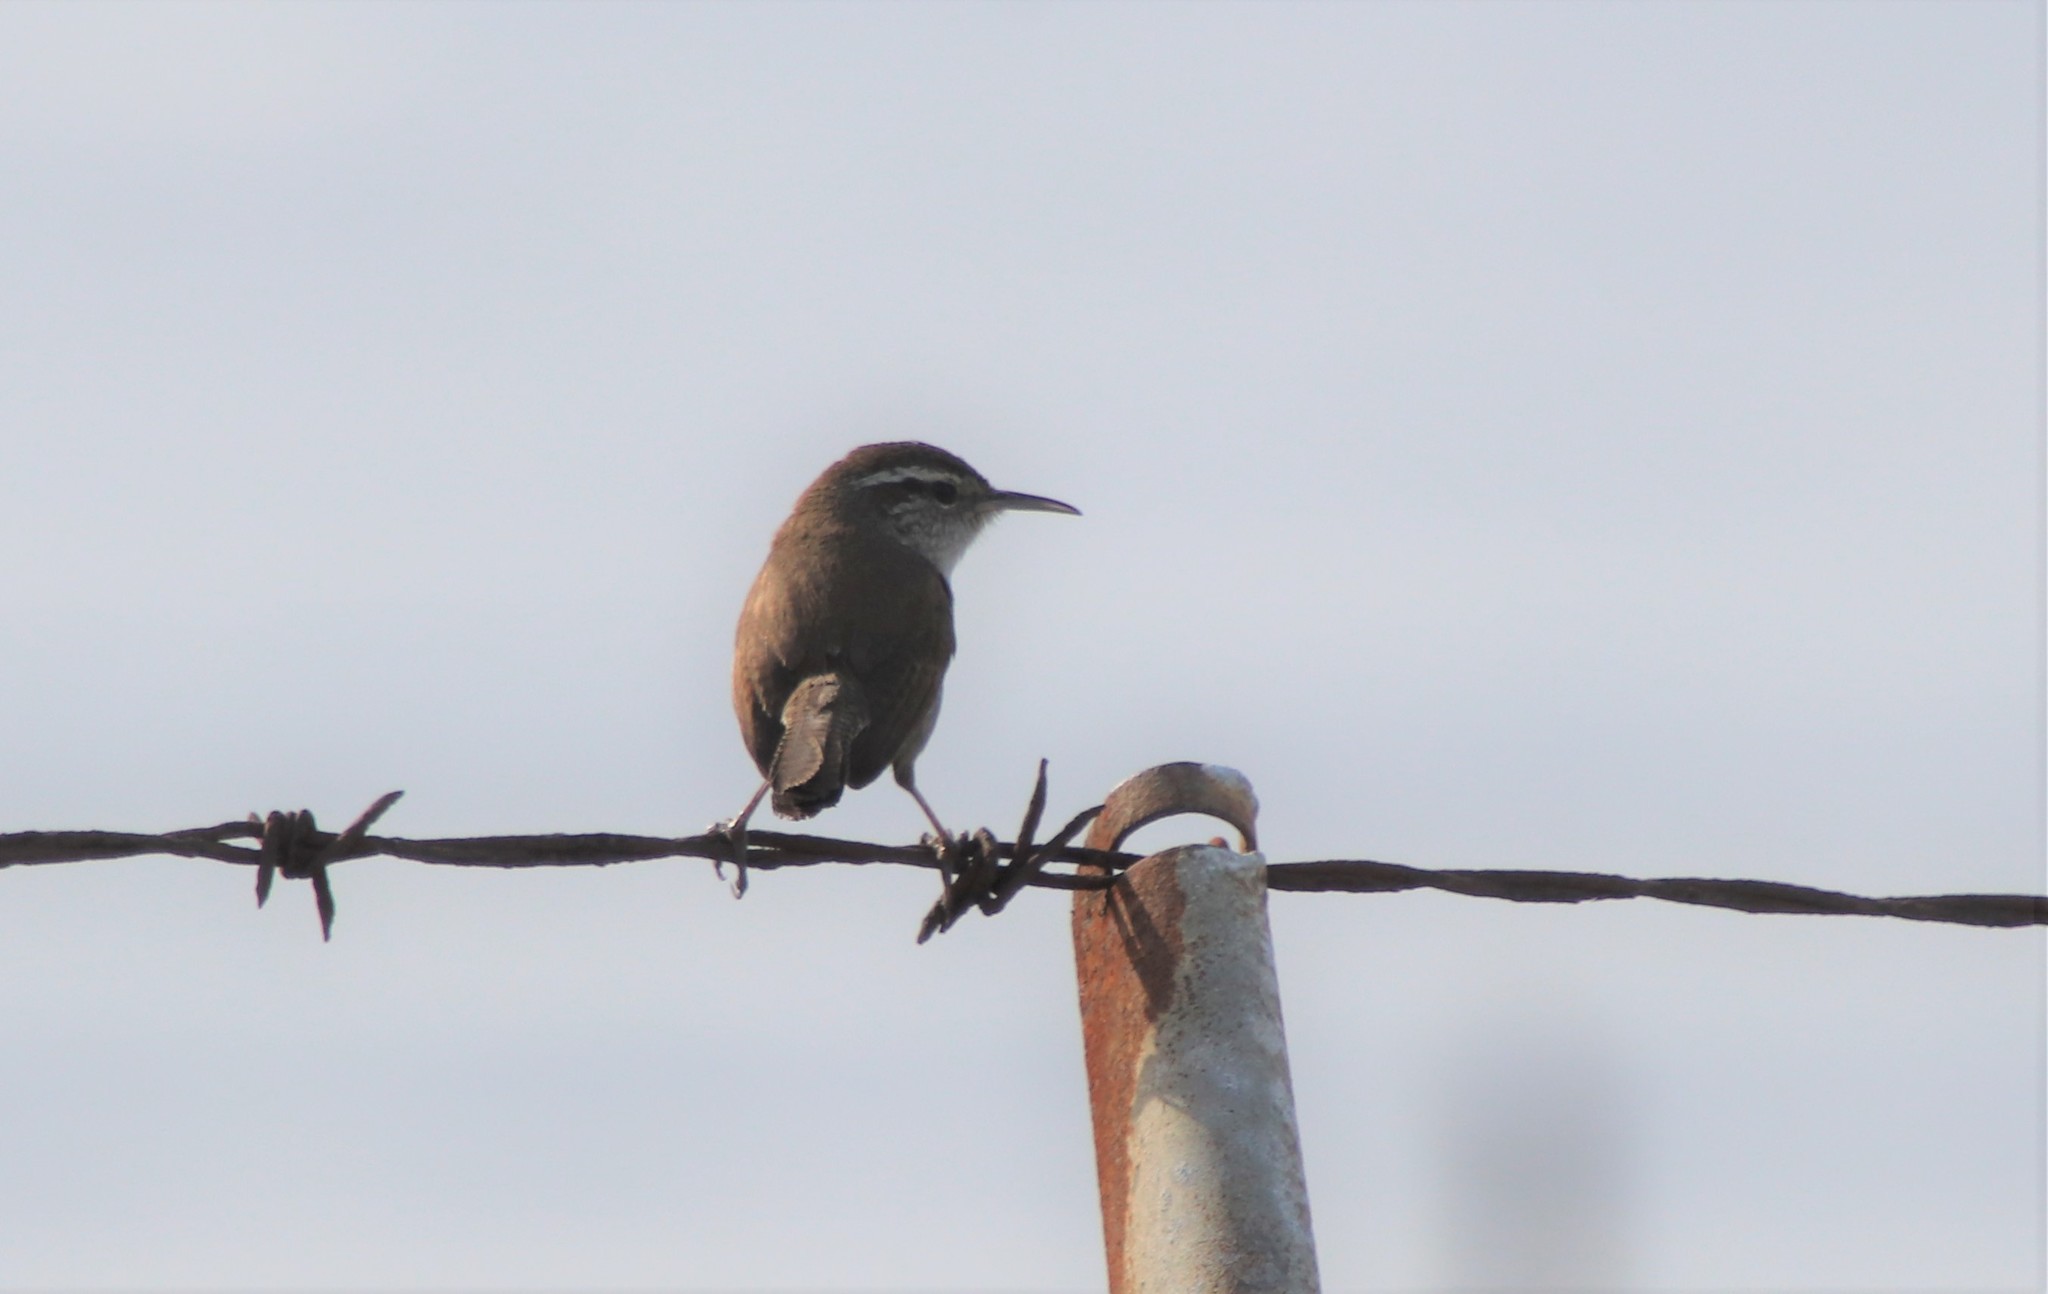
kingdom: Animalia
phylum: Chordata
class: Aves
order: Passeriformes
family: Troglodytidae
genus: Thryomanes
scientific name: Thryomanes bewickii
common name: Bewick's wren
